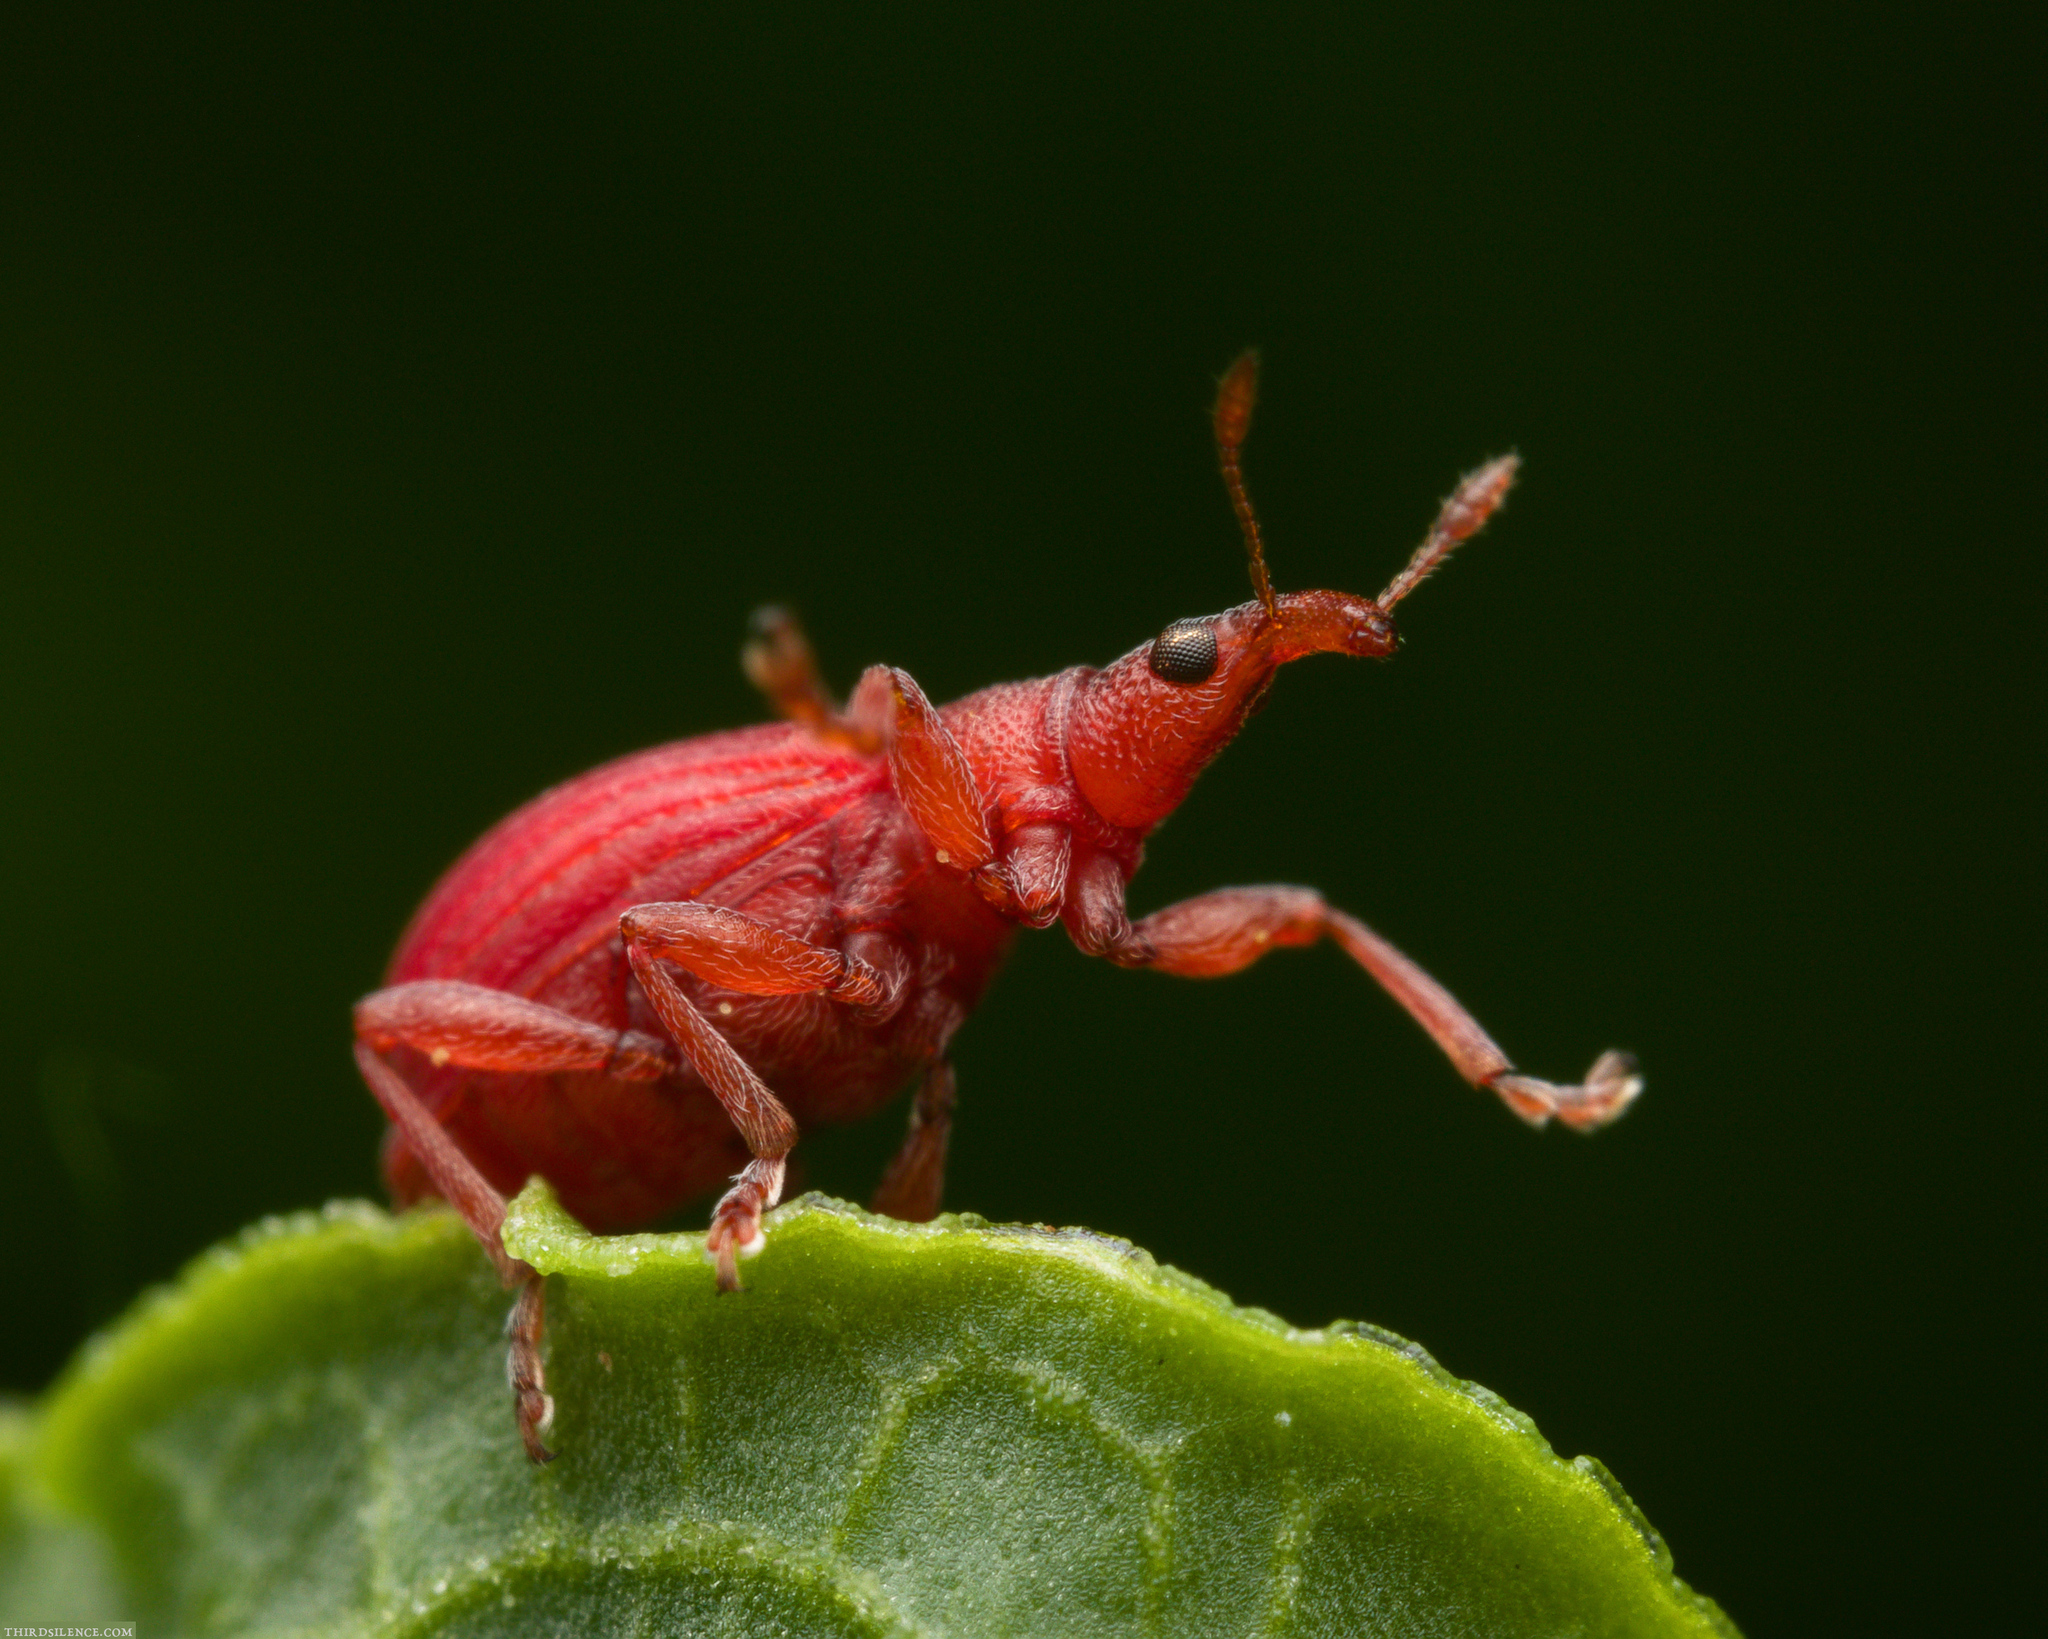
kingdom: Animalia
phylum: Arthropoda
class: Insecta
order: Coleoptera
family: Apionidae
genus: Apion
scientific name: Apion frumentarium
